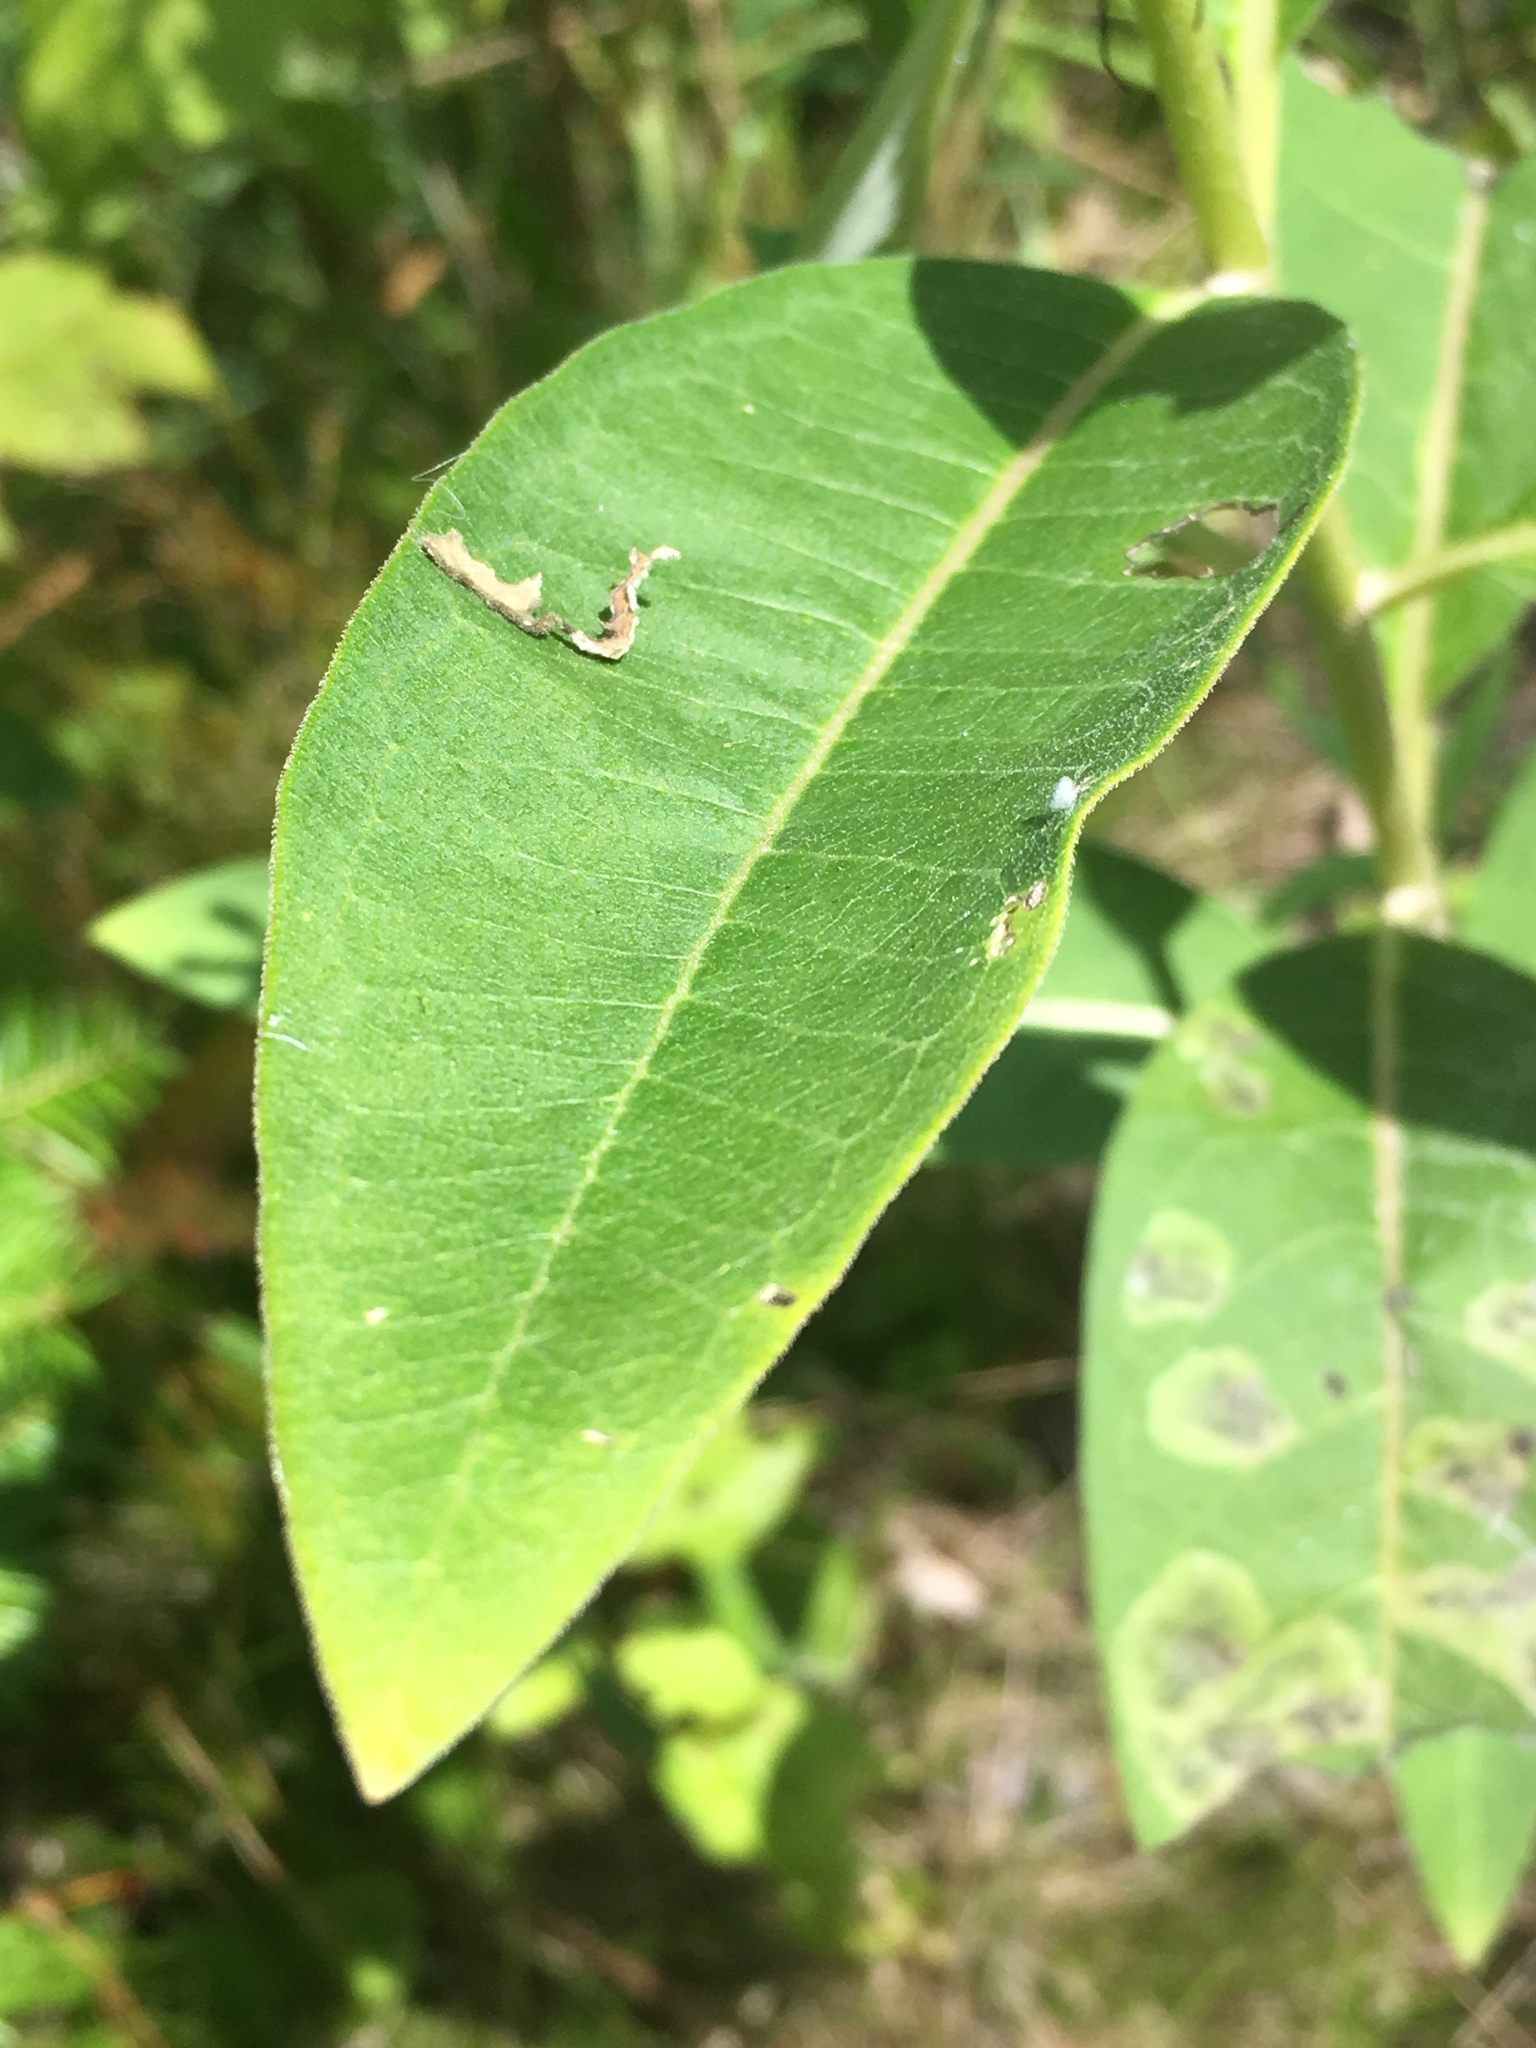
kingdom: Plantae
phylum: Tracheophyta
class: Magnoliopsida
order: Gentianales
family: Apocynaceae
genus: Asclepias
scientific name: Asclepias syriaca
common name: Common milkweed
